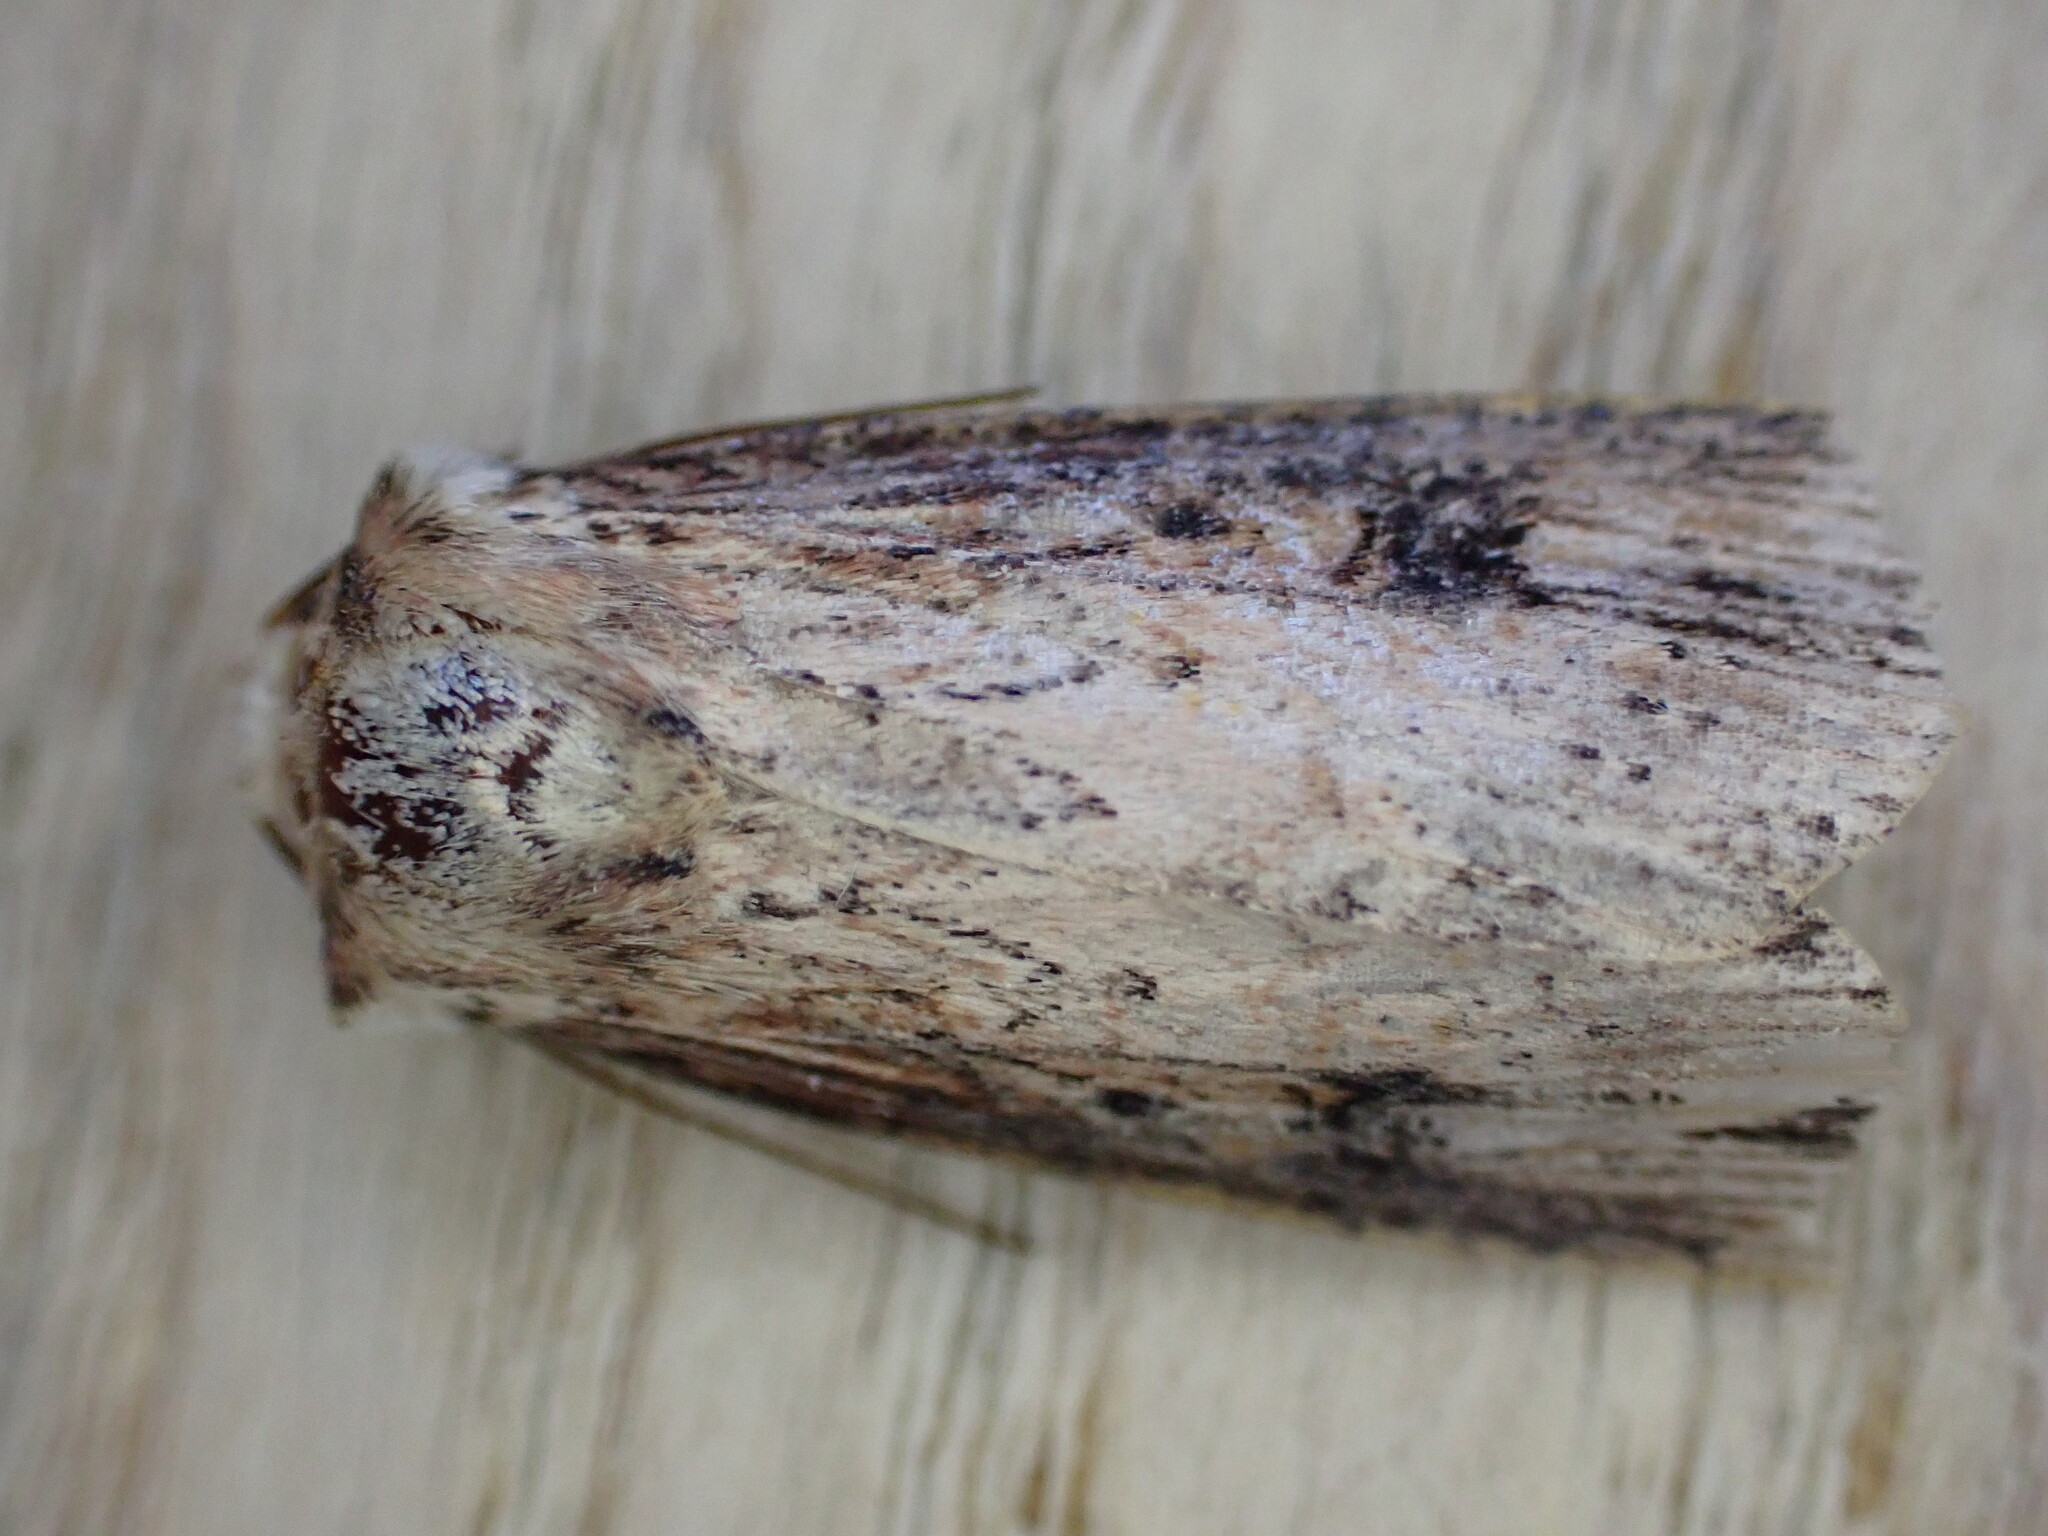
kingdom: Animalia
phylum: Arthropoda
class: Insecta
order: Lepidoptera
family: Noctuidae
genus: Axylia
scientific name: Axylia putris
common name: Flame
